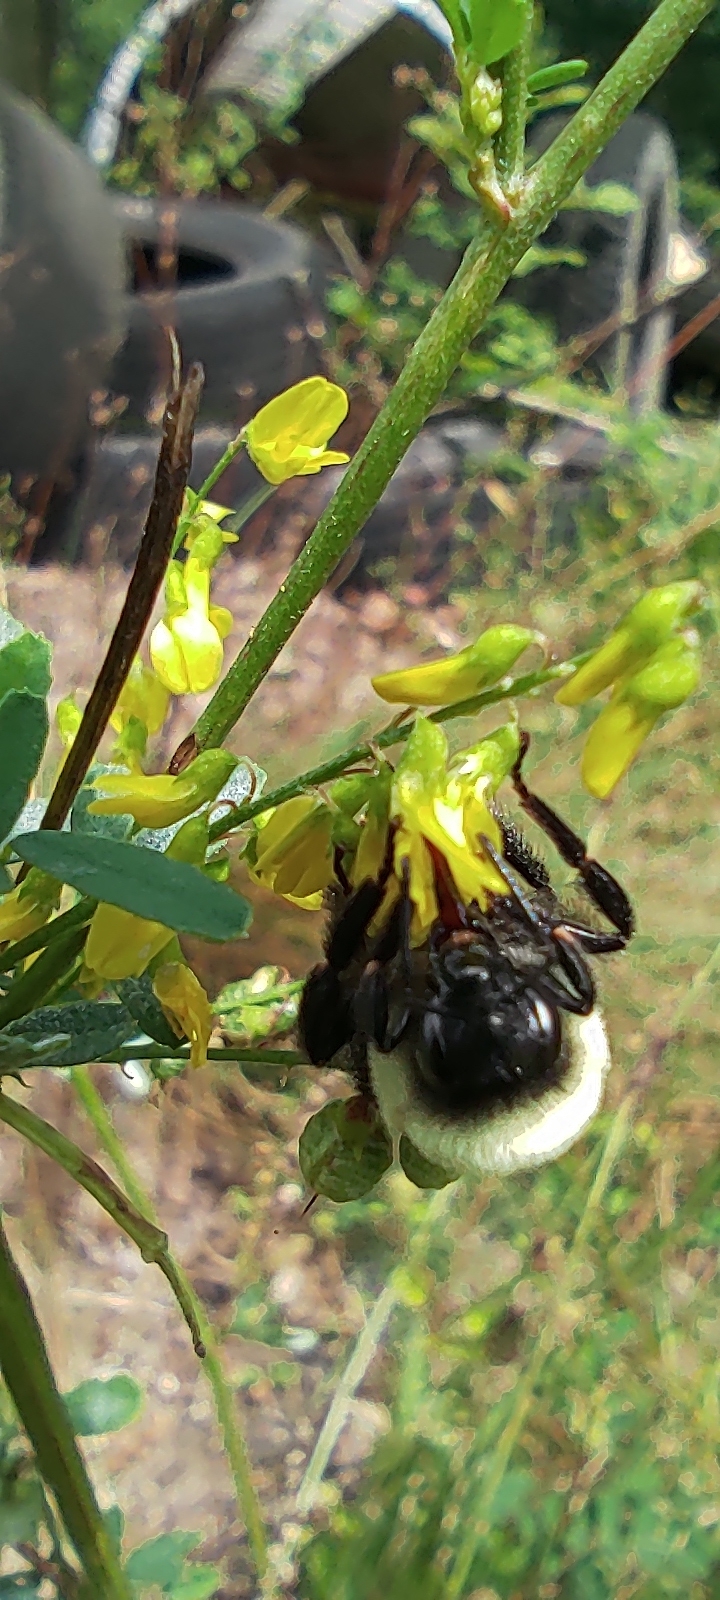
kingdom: Animalia
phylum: Arthropoda
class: Insecta
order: Hymenoptera
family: Apidae
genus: Bombus
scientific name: Bombus impatiens
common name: Common eastern bumble bee
